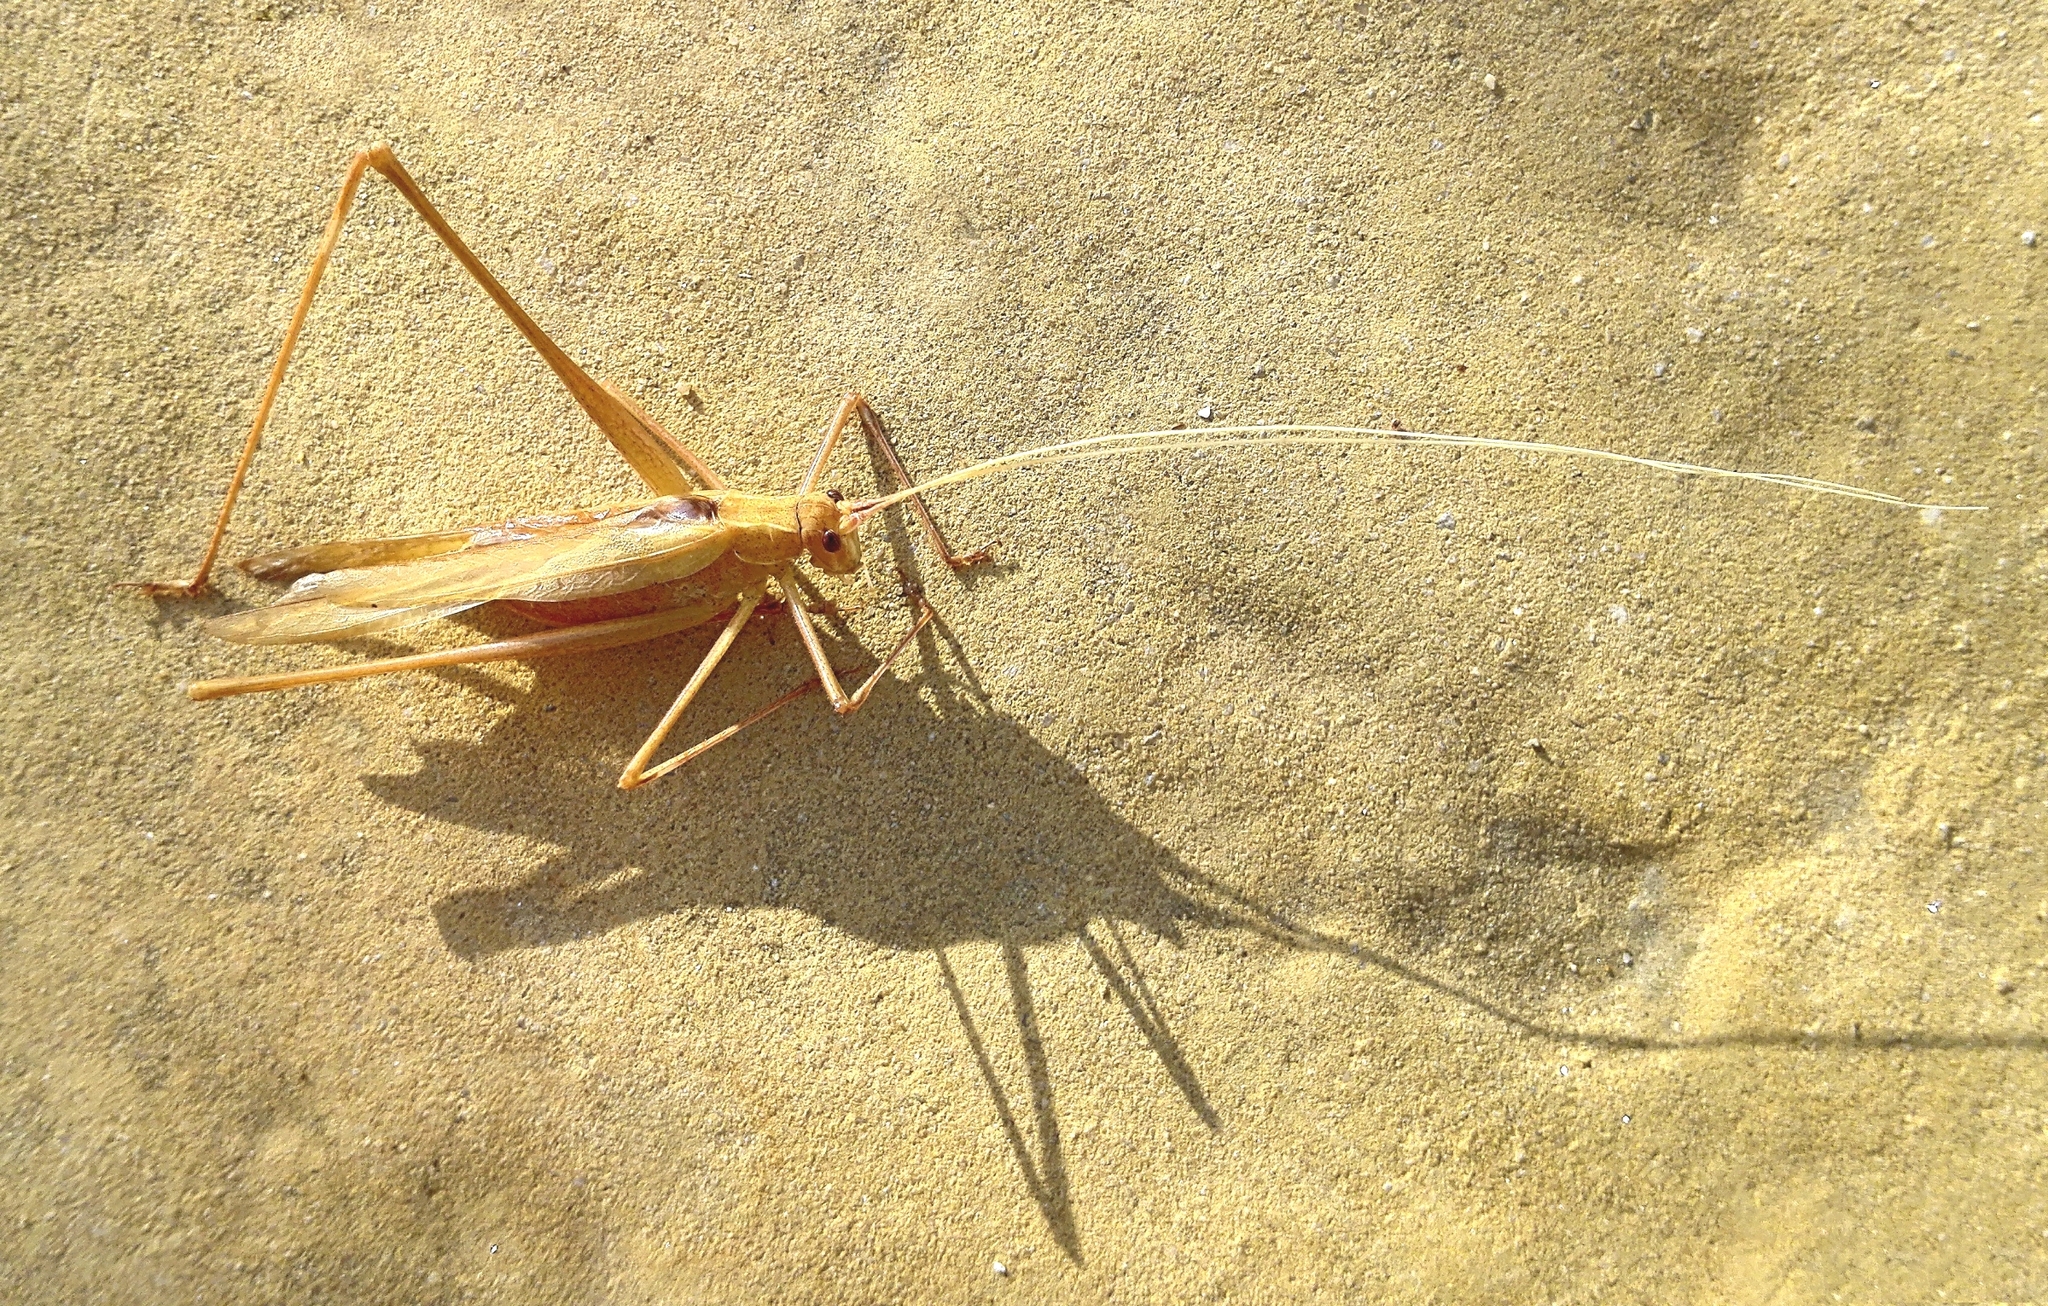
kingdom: Animalia
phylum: Arthropoda
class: Insecta
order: Orthoptera
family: Tettigoniidae
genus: Tylopsis
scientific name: Tylopsis lilifolia
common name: Lily bush-cricket
